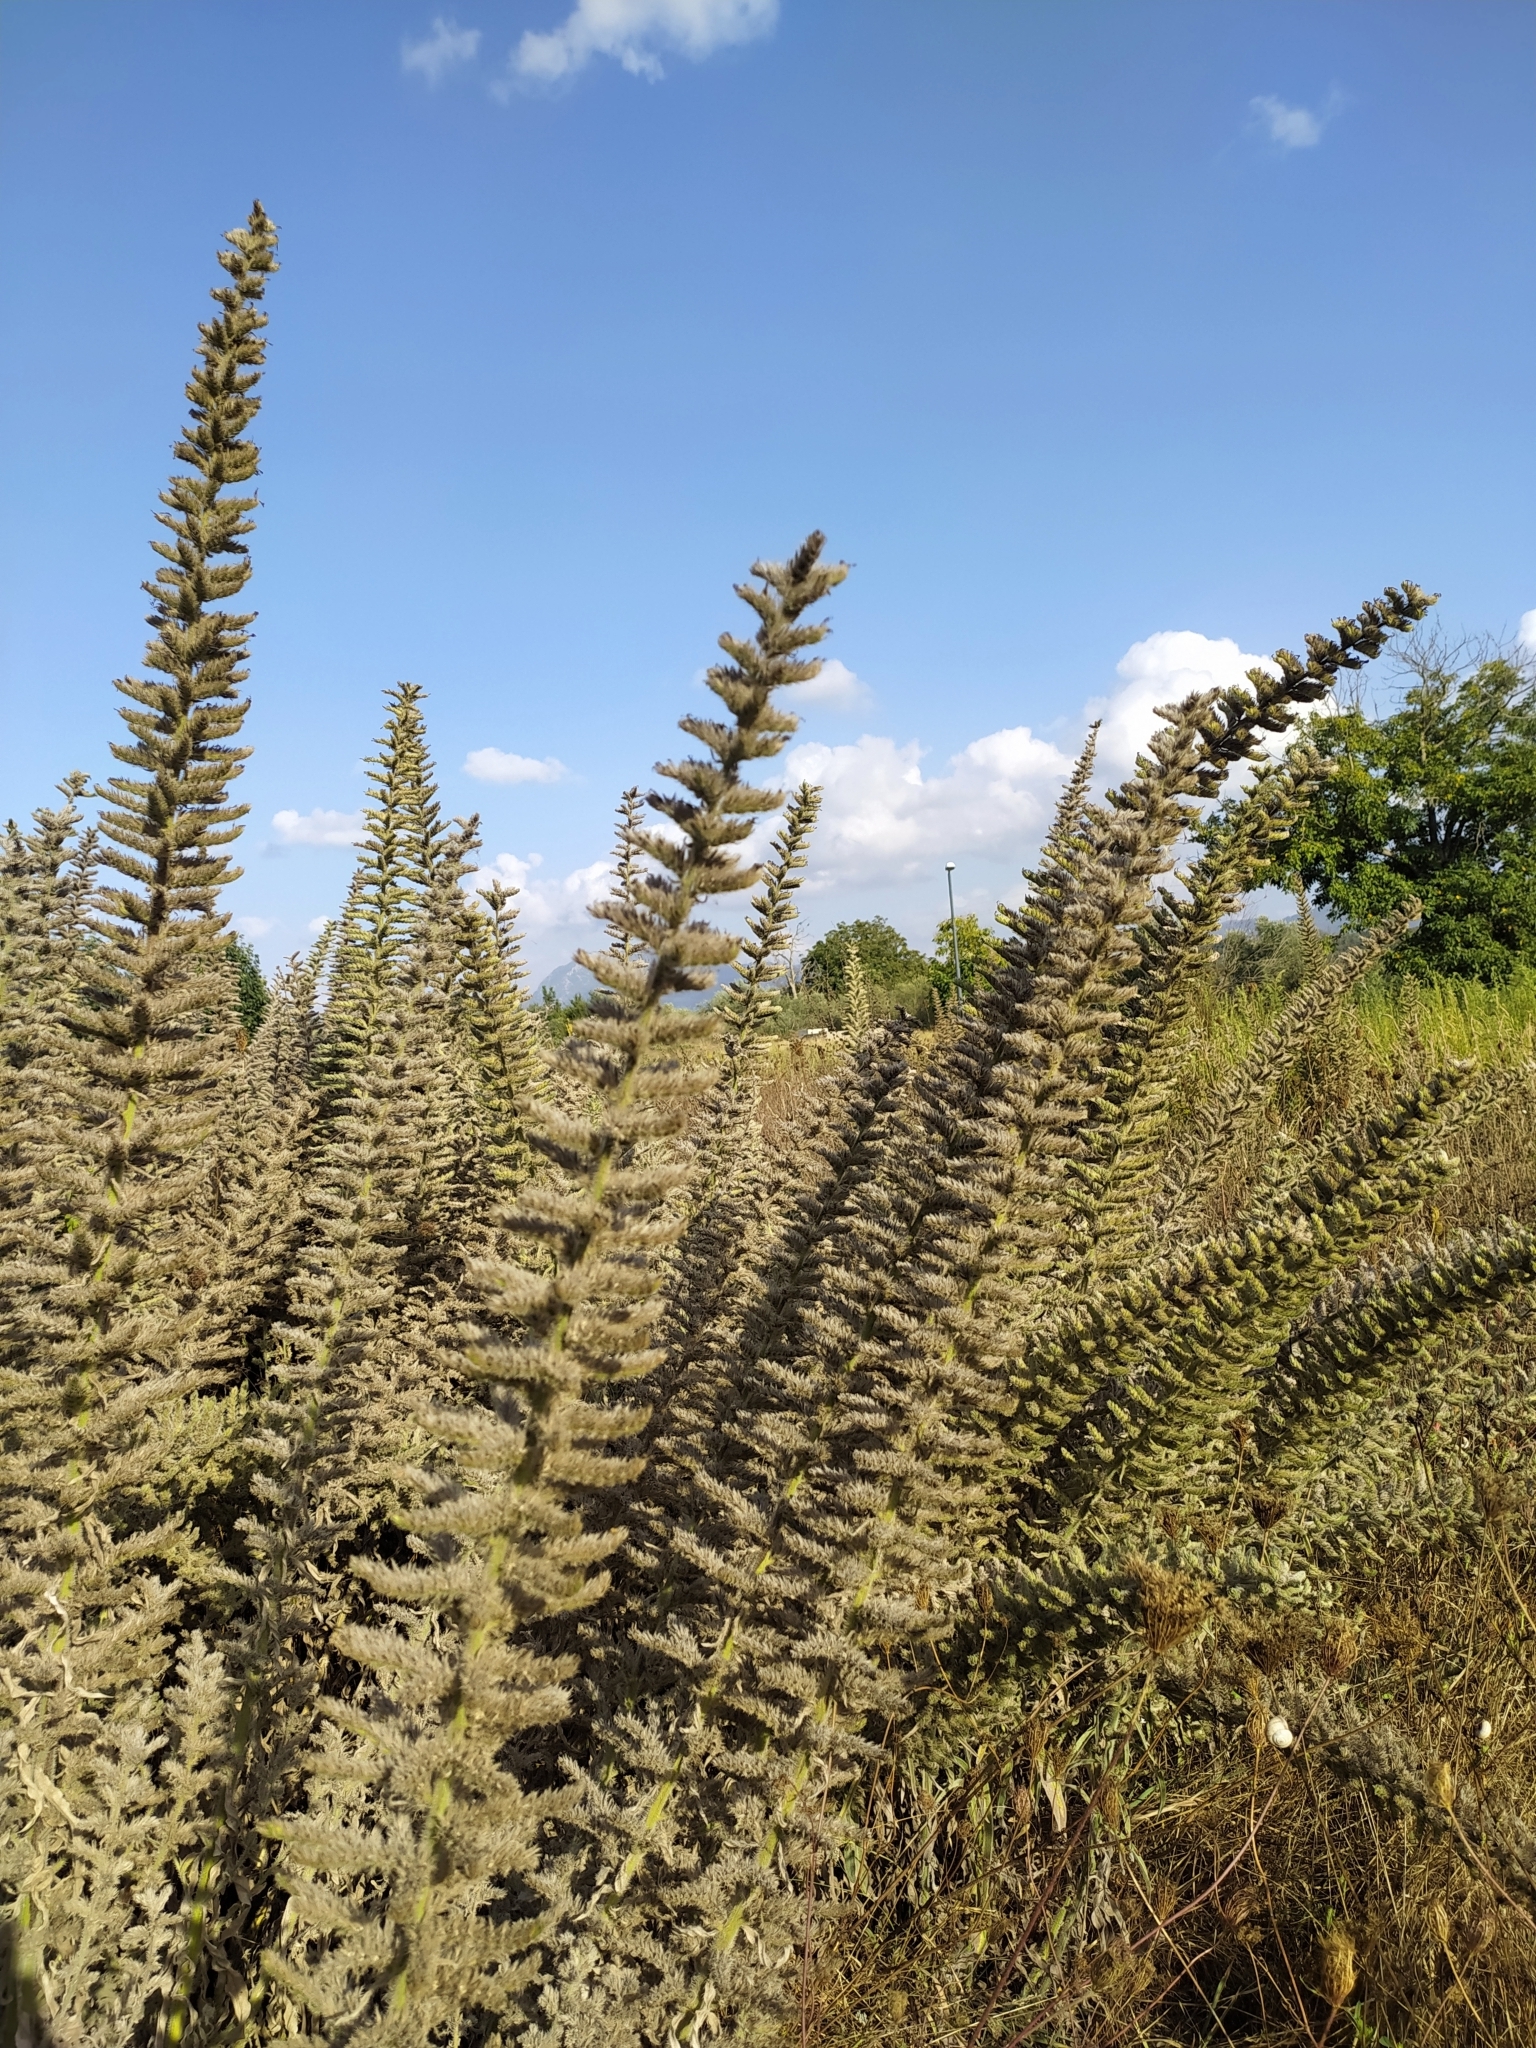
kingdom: Plantae
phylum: Tracheophyta
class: Magnoliopsida
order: Boraginales
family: Boraginaceae
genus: Echium
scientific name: Echium italicum
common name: Italian viper's bugloss
